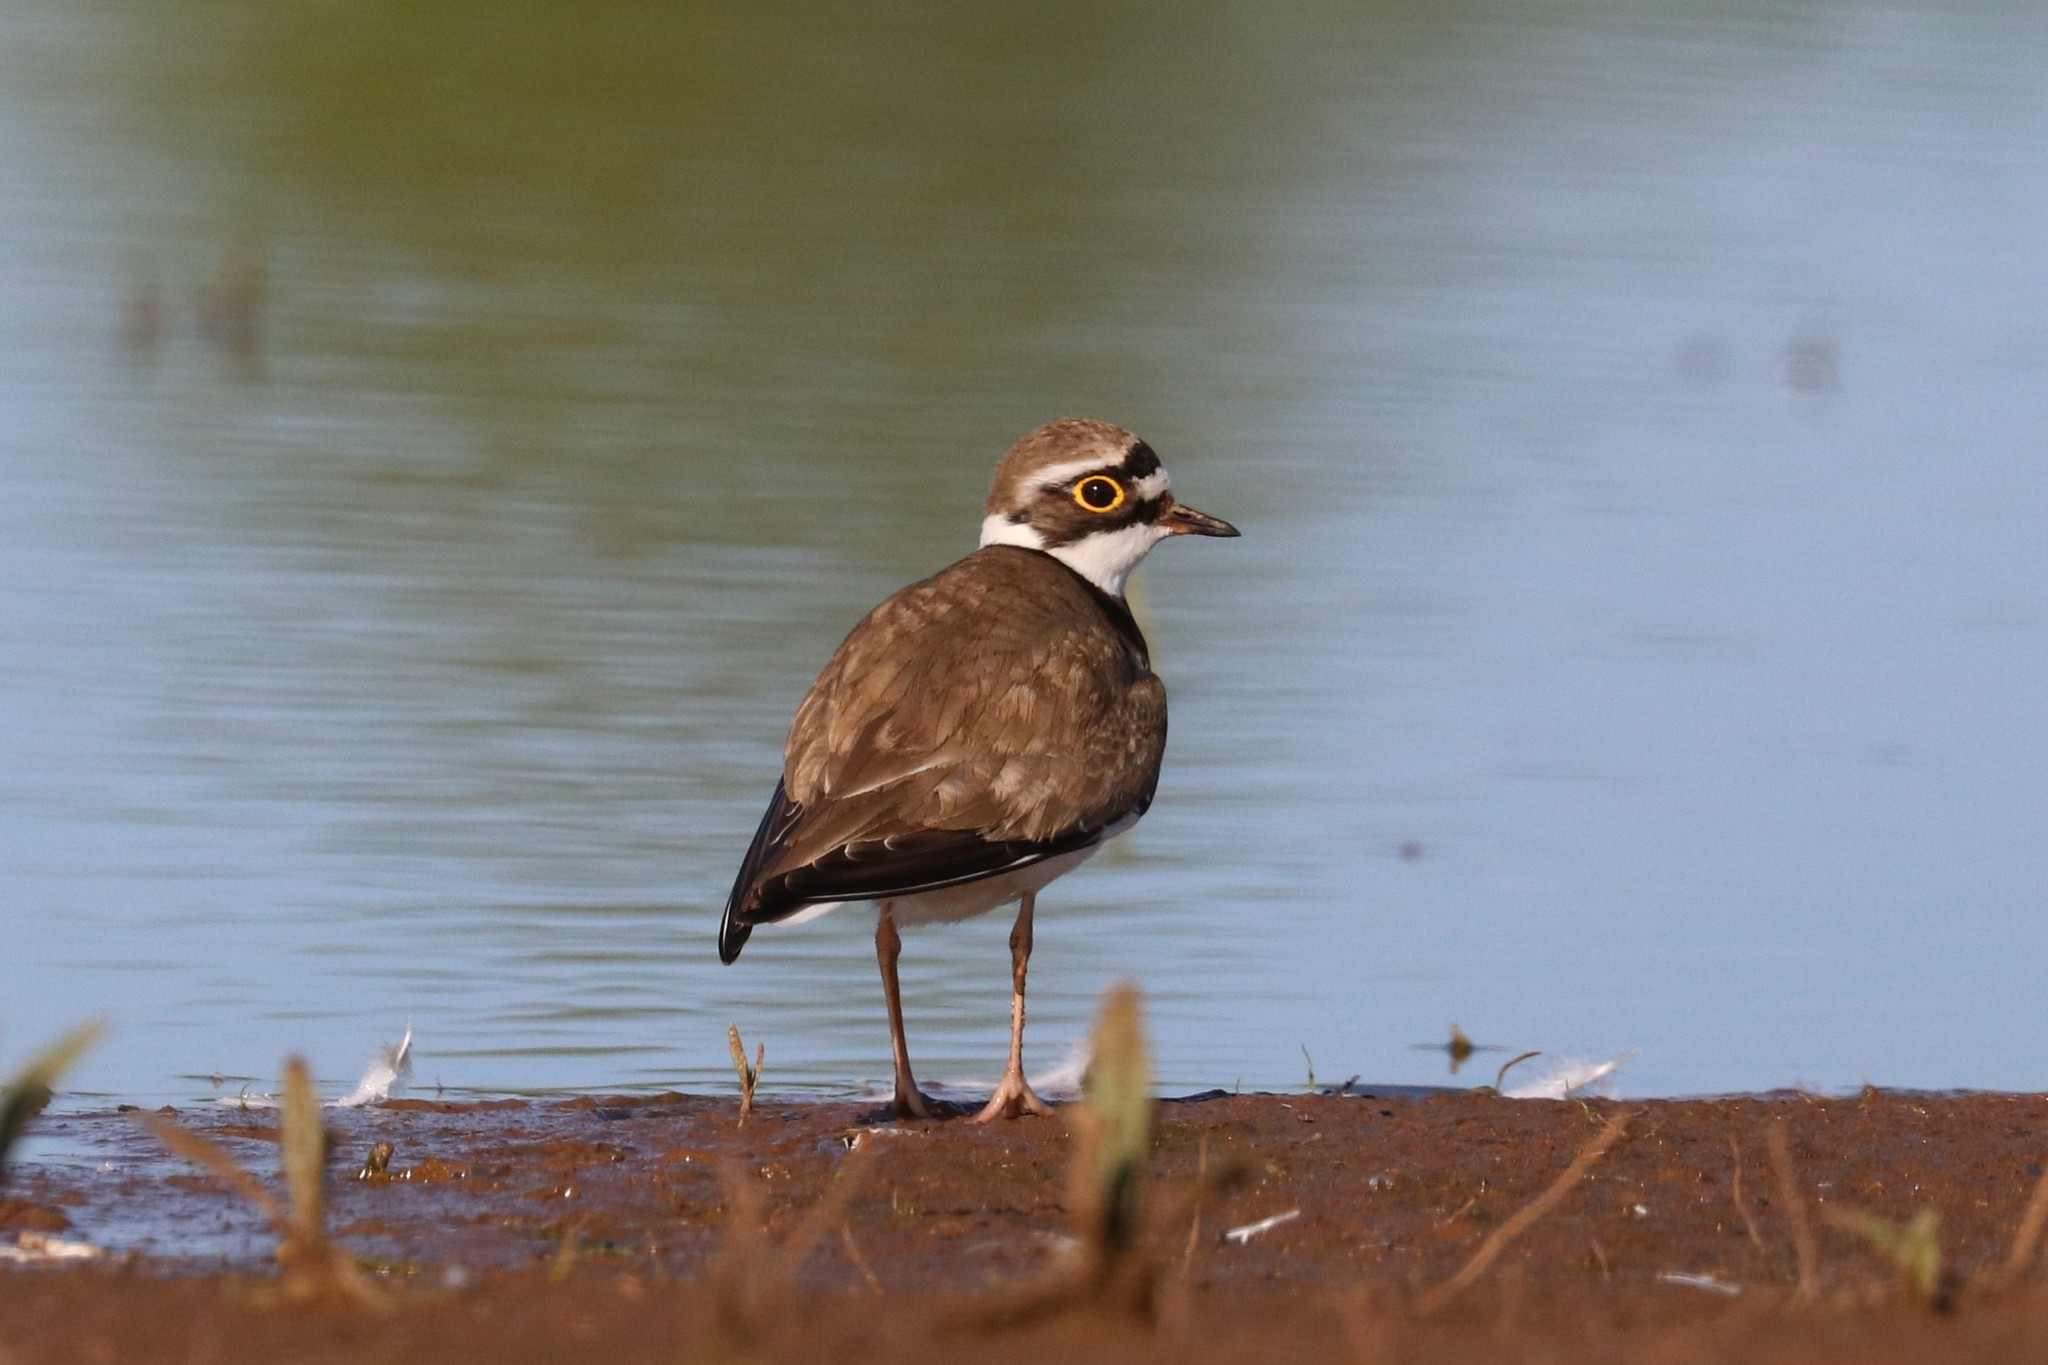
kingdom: Animalia
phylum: Chordata
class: Aves
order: Charadriiformes
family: Charadriidae
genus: Charadrius
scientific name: Charadrius dubius
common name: Little ringed plover
